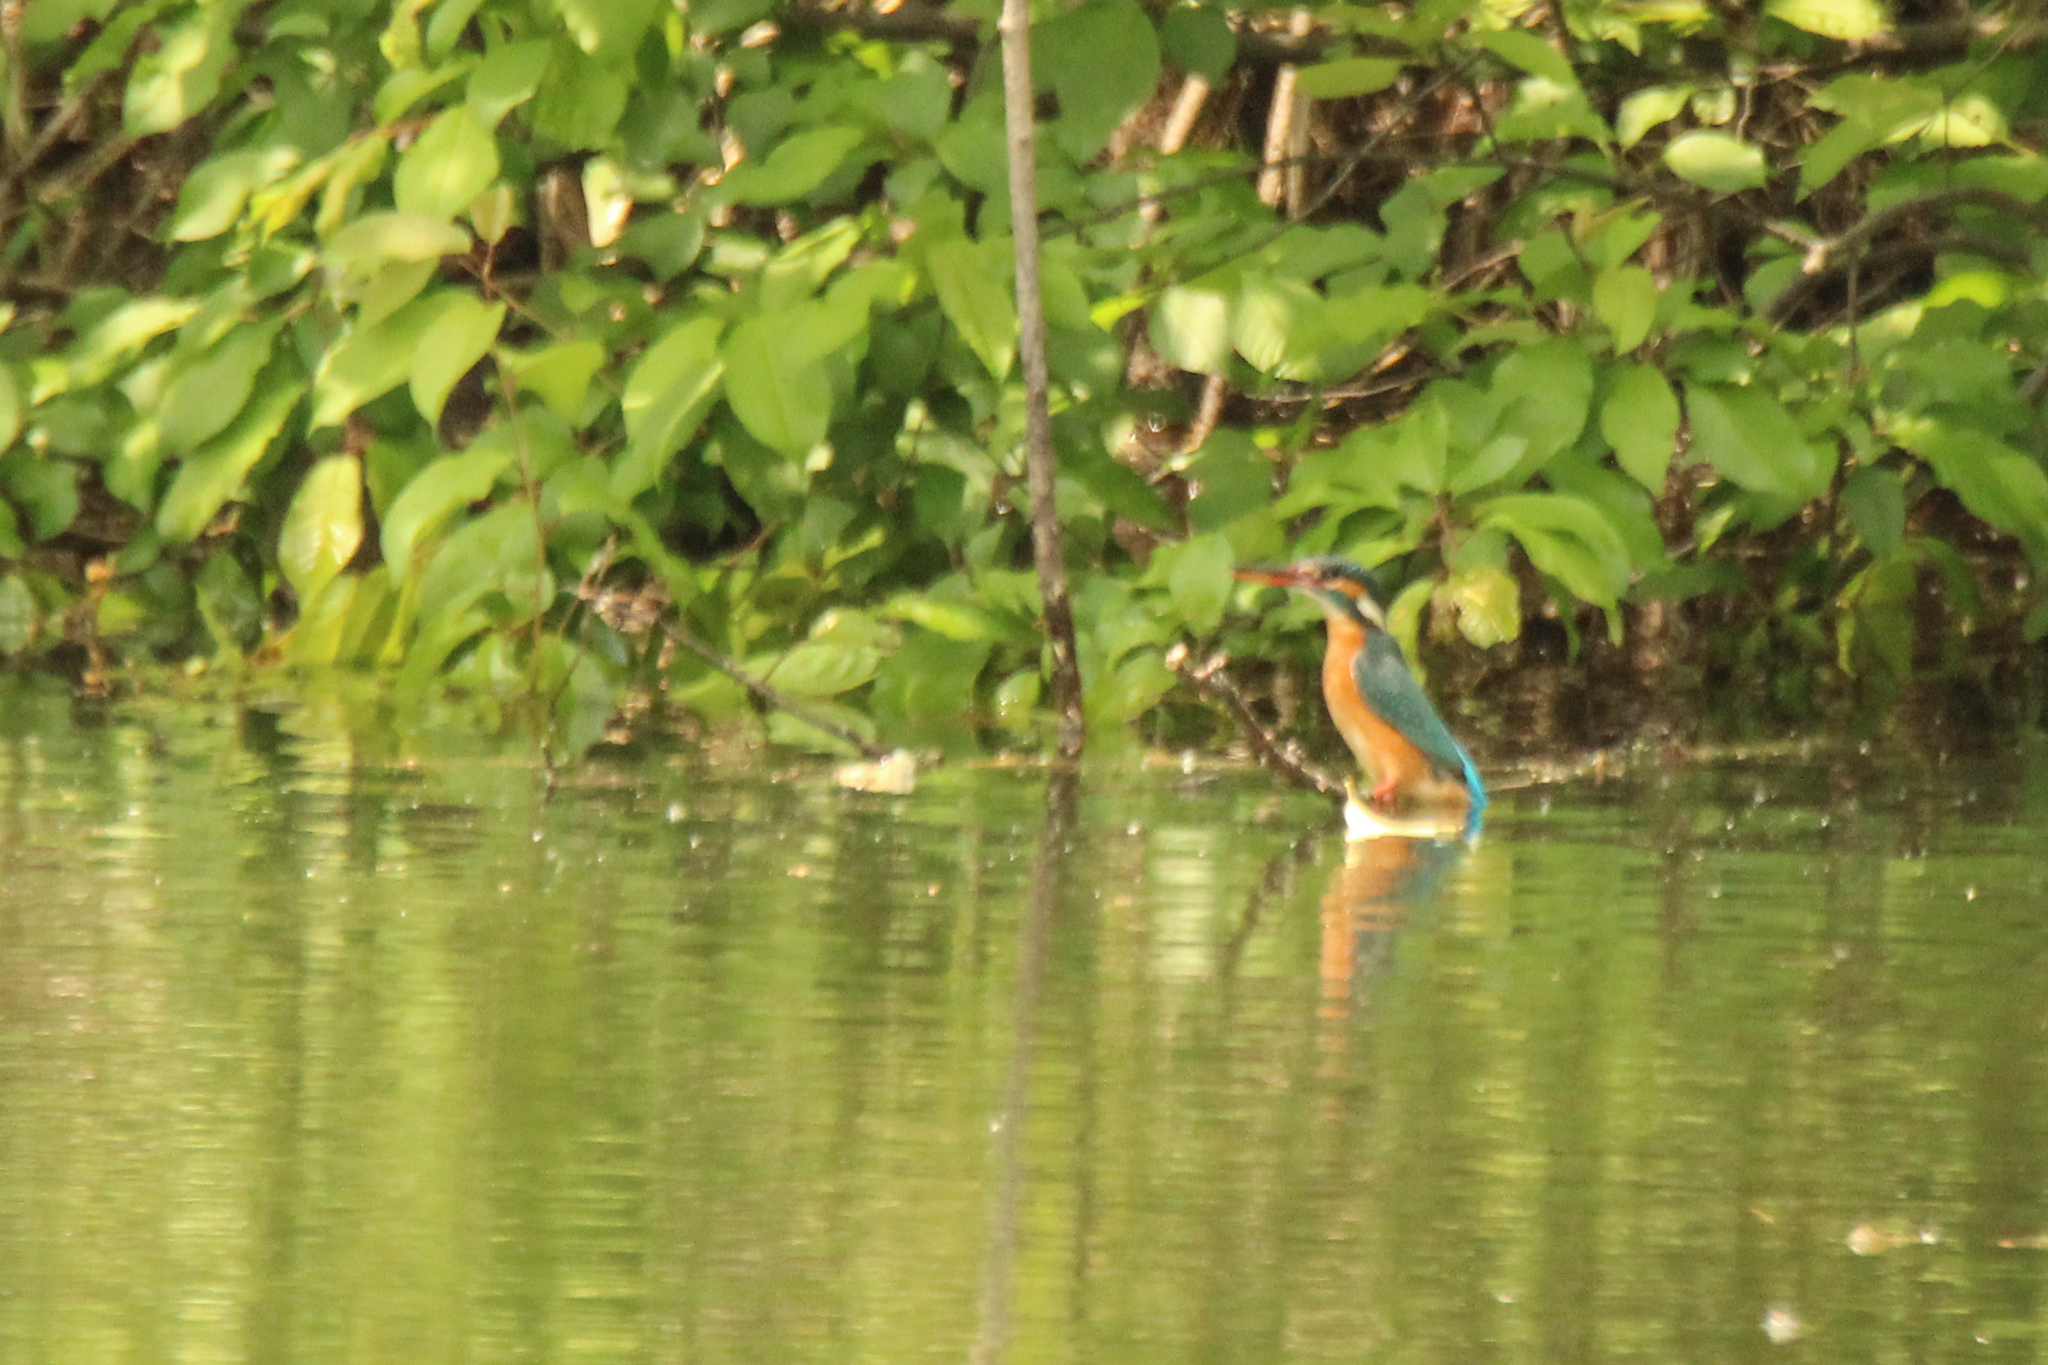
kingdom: Animalia
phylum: Chordata
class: Aves
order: Coraciiformes
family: Alcedinidae
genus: Alcedo
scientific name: Alcedo atthis
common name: Common kingfisher
